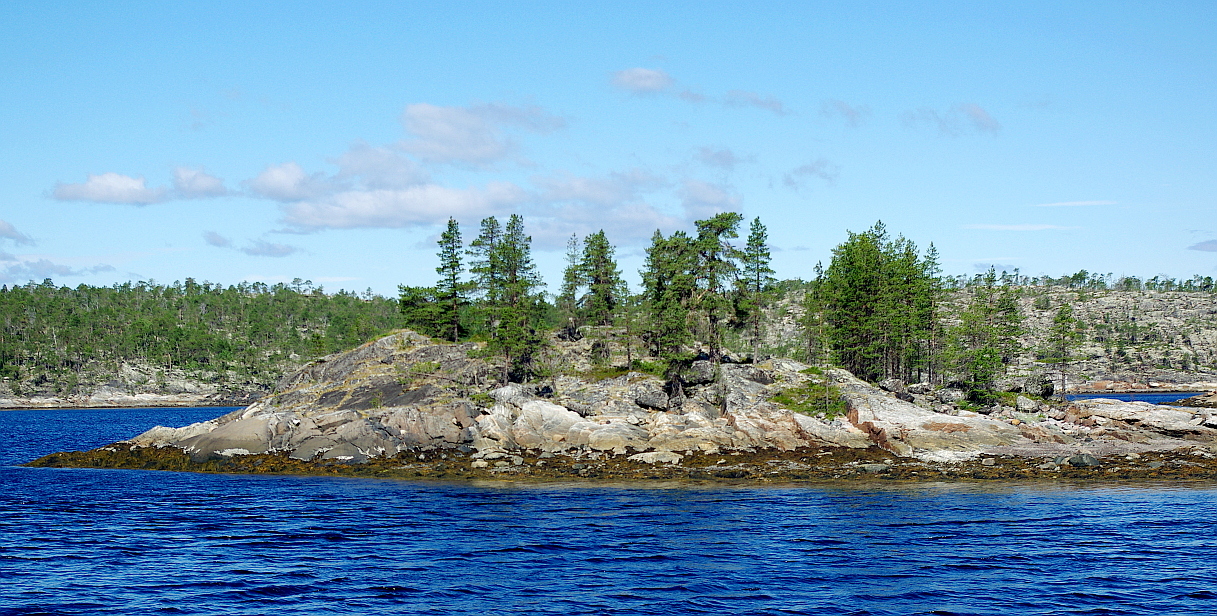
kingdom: Plantae
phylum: Tracheophyta
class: Pinopsida
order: Pinales
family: Pinaceae
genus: Pinus
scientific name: Pinus sylvestris
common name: Scots pine
